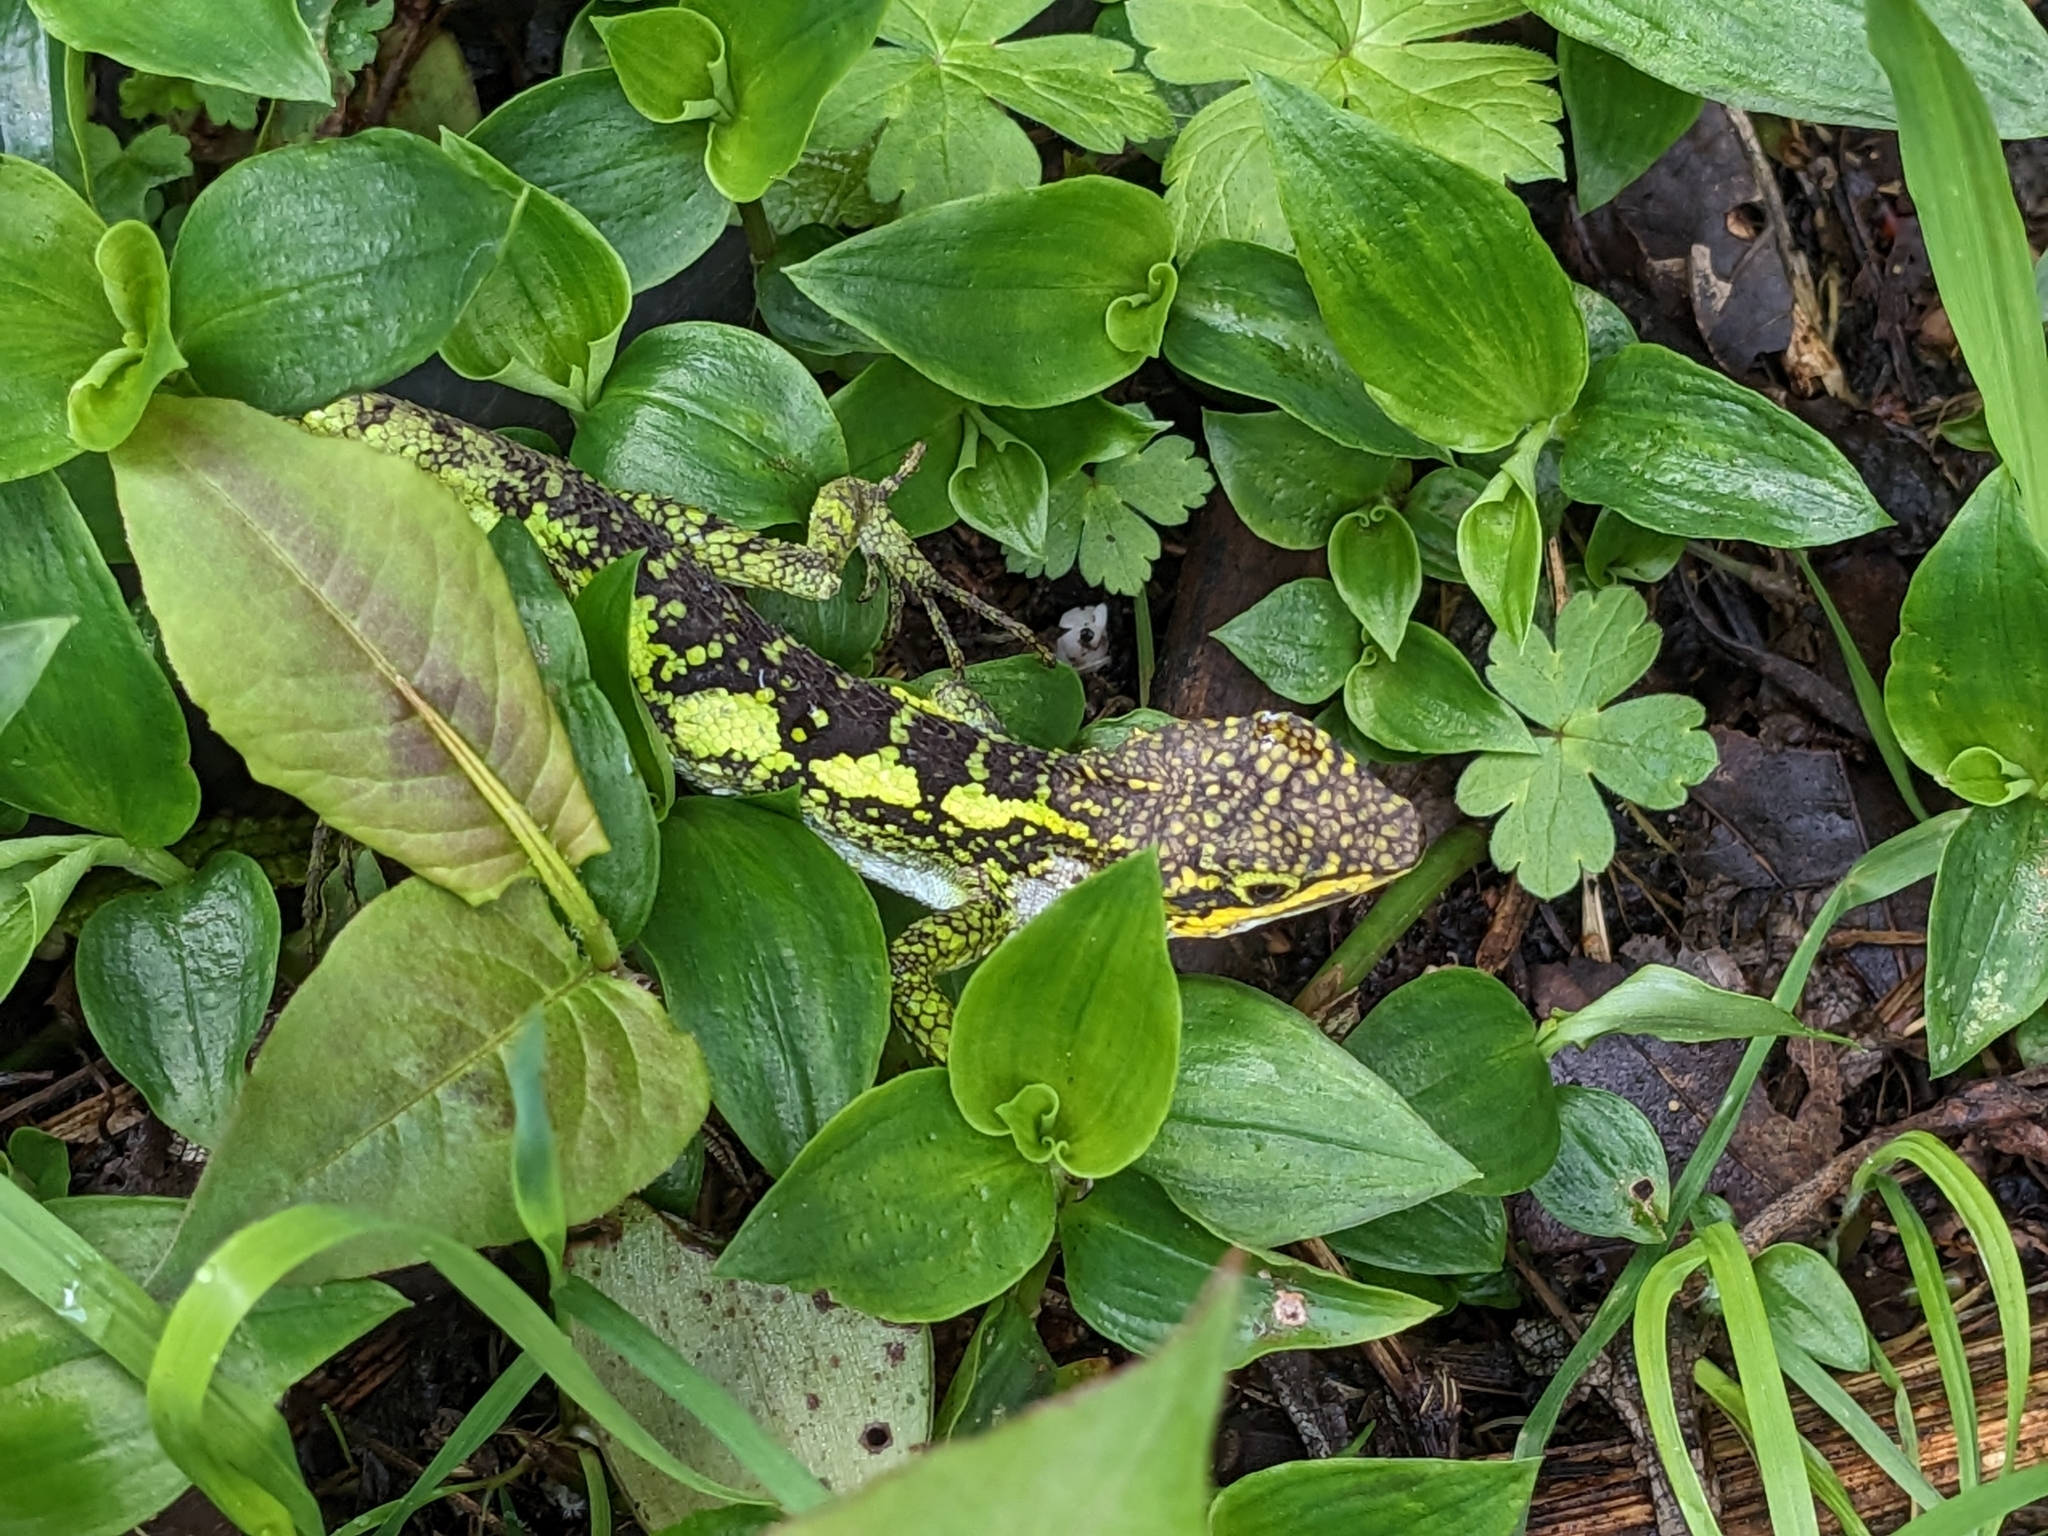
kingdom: Animalia
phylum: Chordata
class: Squamata
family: Agamidae
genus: Diploderma
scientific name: Diploderma brevipes
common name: Short-legged japalure
